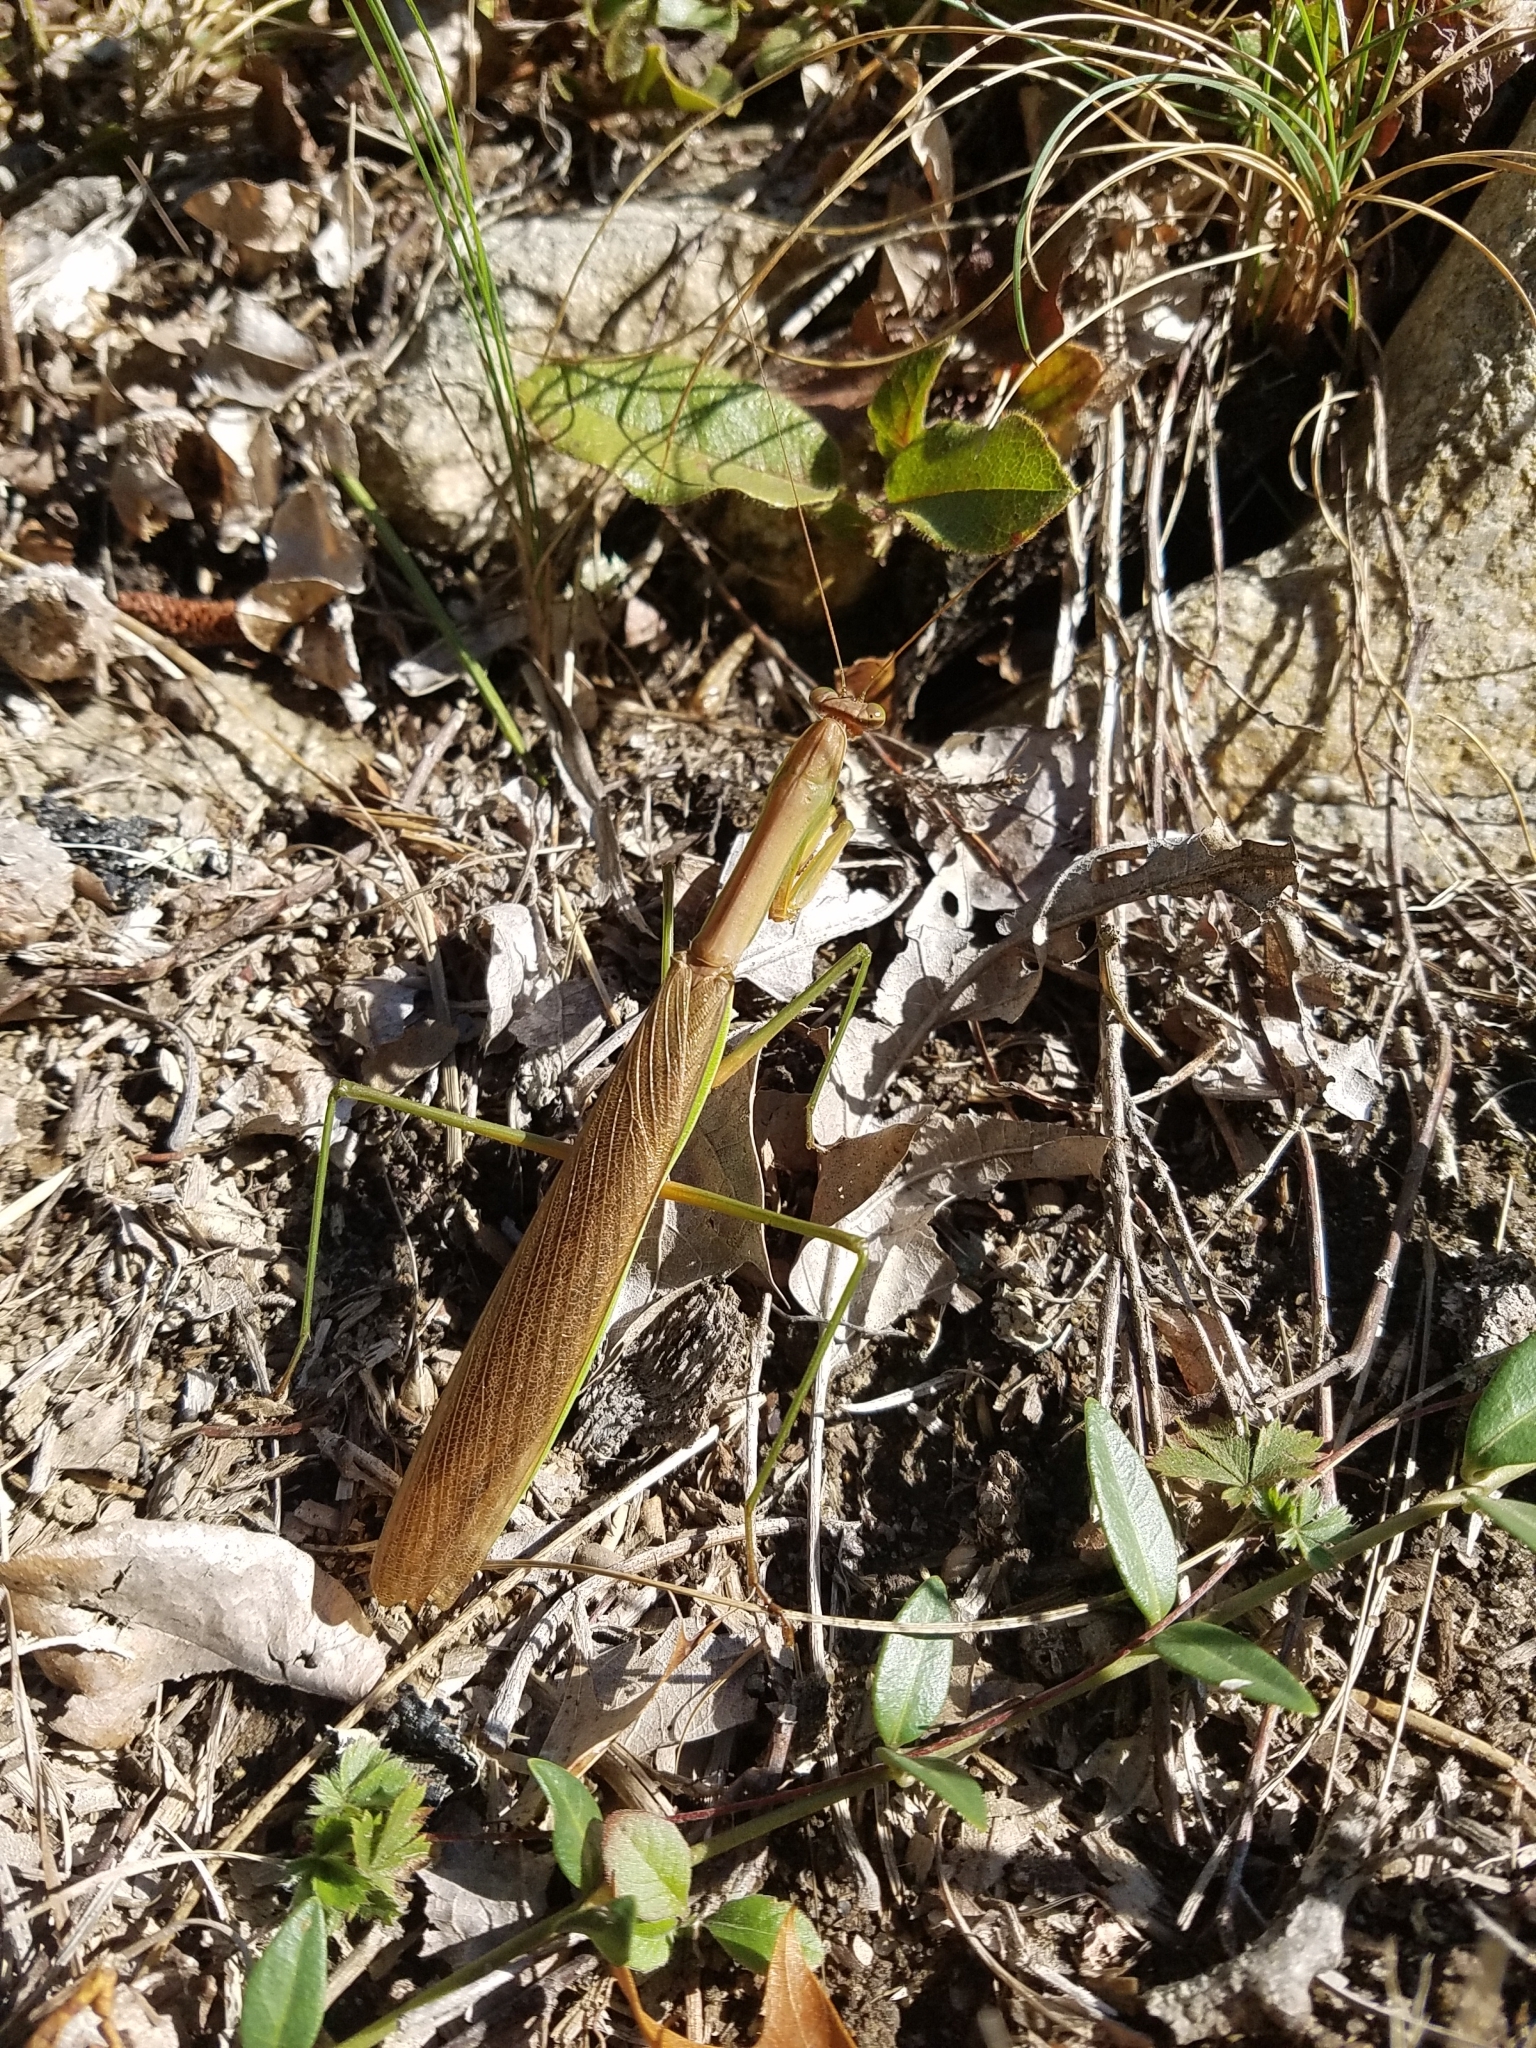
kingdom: Animalia
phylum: Arthropoda
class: Insecta
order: Mantodea
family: Mantidae
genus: Tenodera
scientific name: Tenodera sinensis
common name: Chinese mantis
